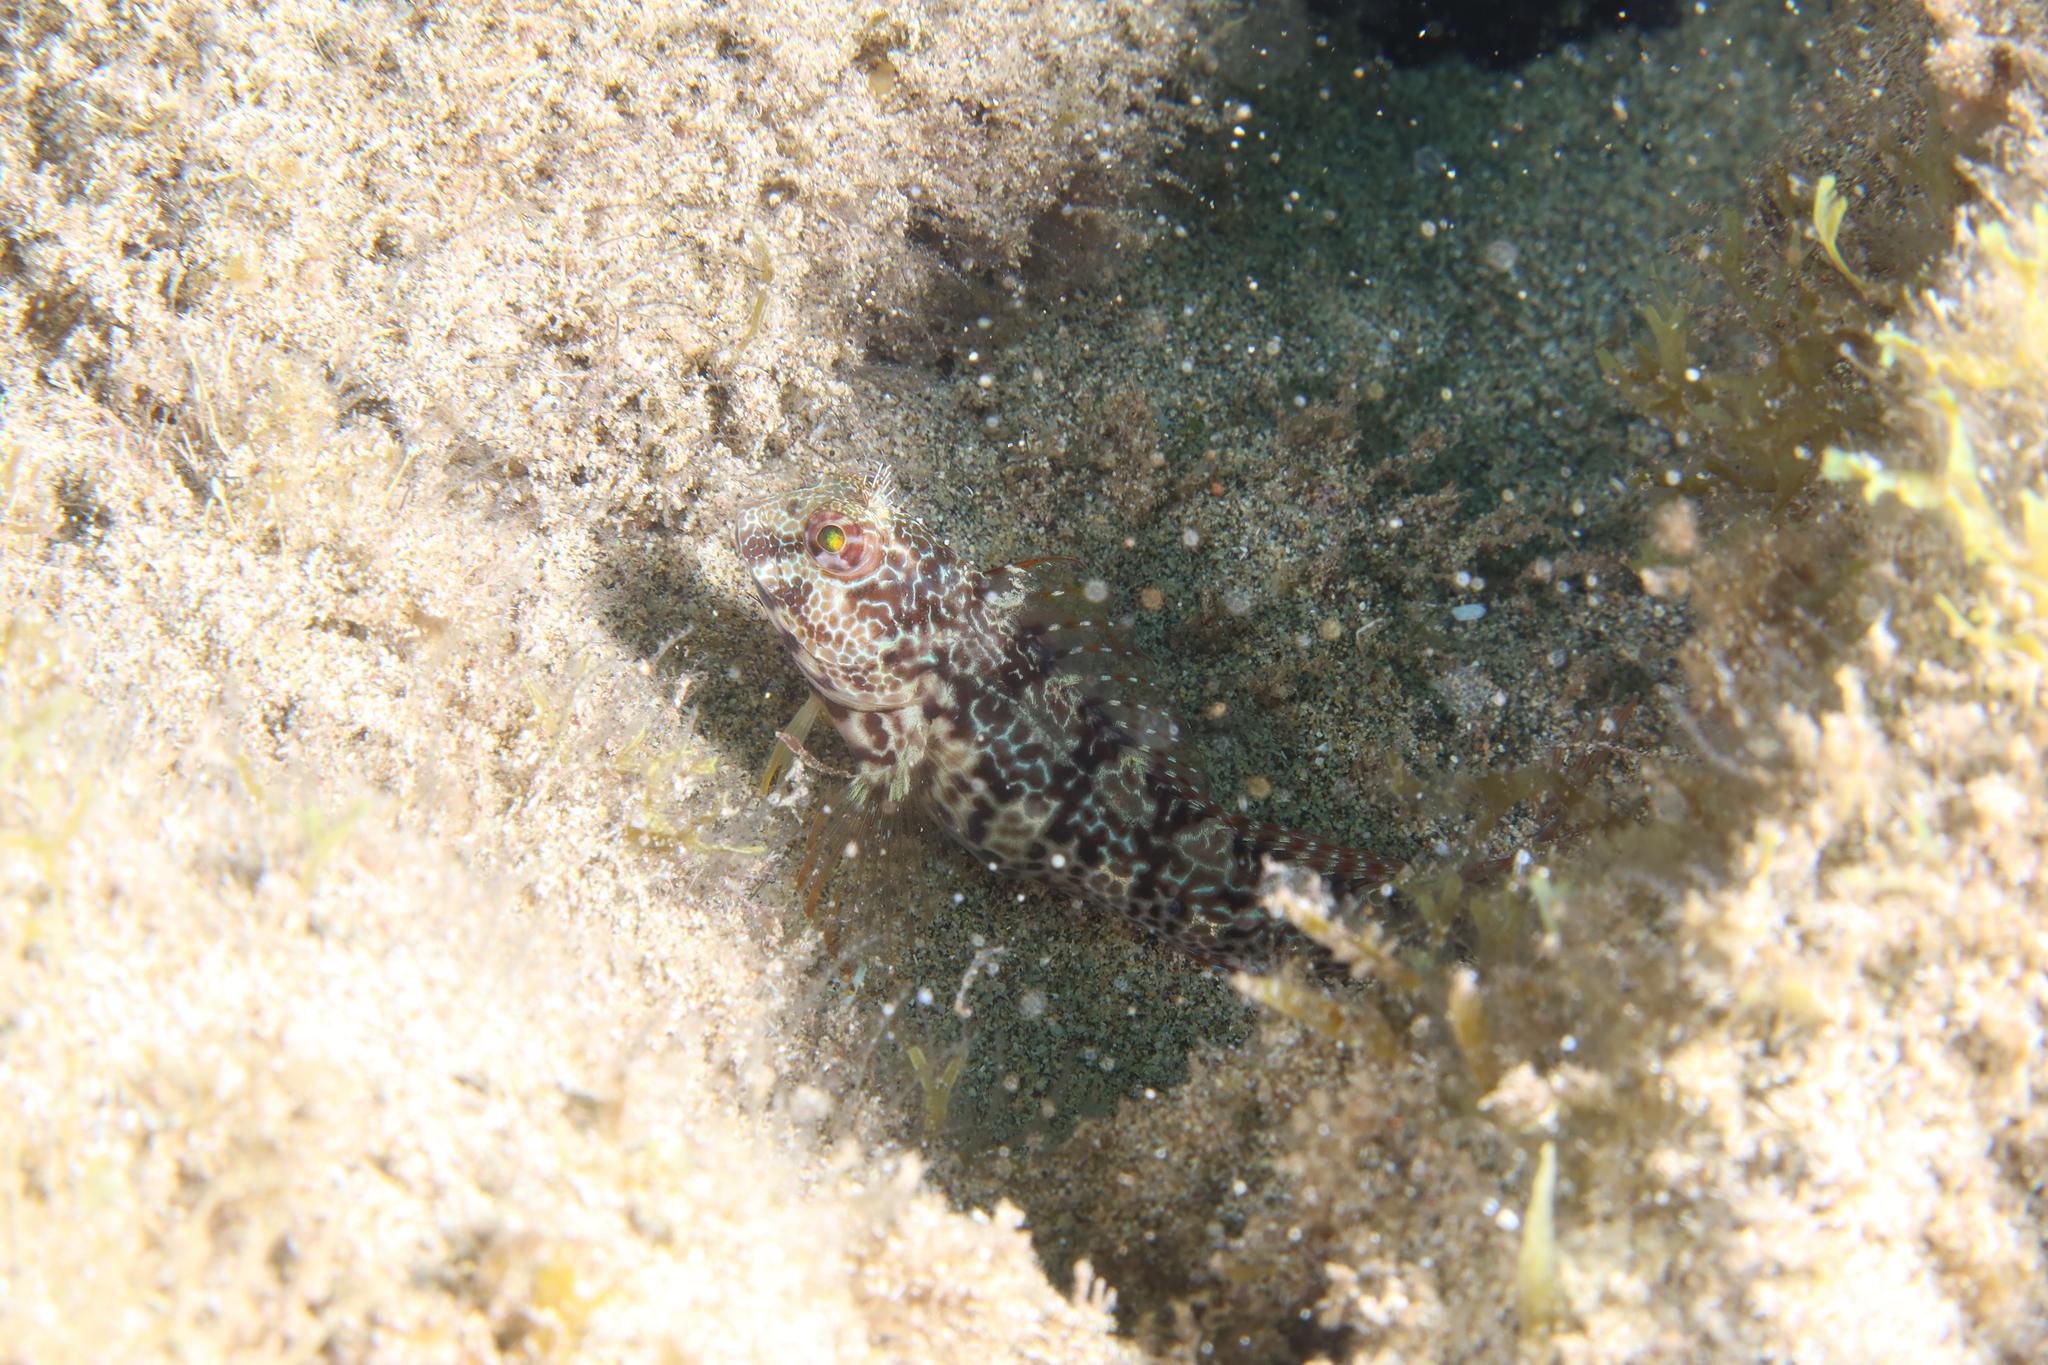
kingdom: Animalia
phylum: Chordata
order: Perciformes
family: Blenniidae
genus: Parablennius
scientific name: Parablennius pilicornis
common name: Ringneck blenny
